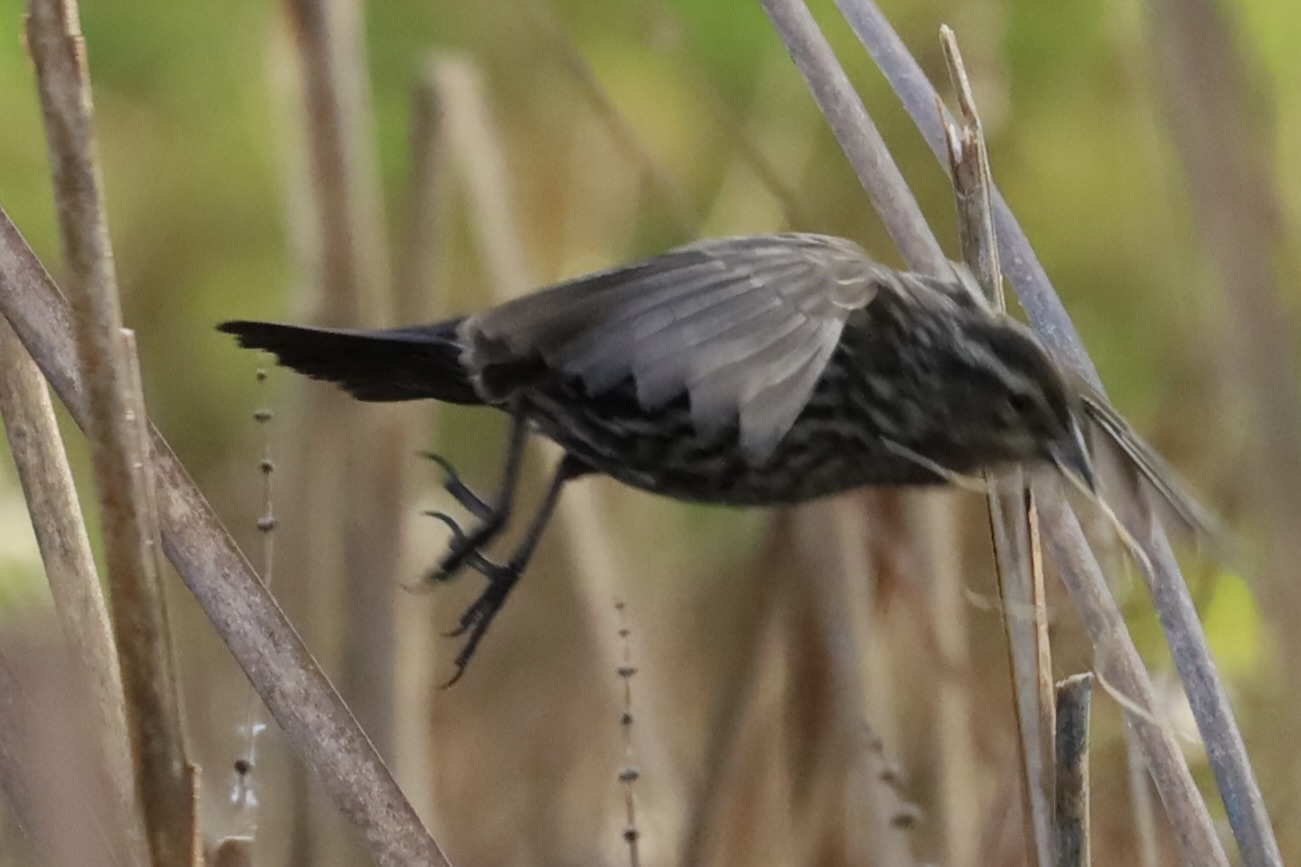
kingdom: Animalia
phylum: Chordata
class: Aves
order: Passeriformes
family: Icteridae
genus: Agelaius
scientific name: Agelaius phoeniceus
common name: Red-winged blackbird
